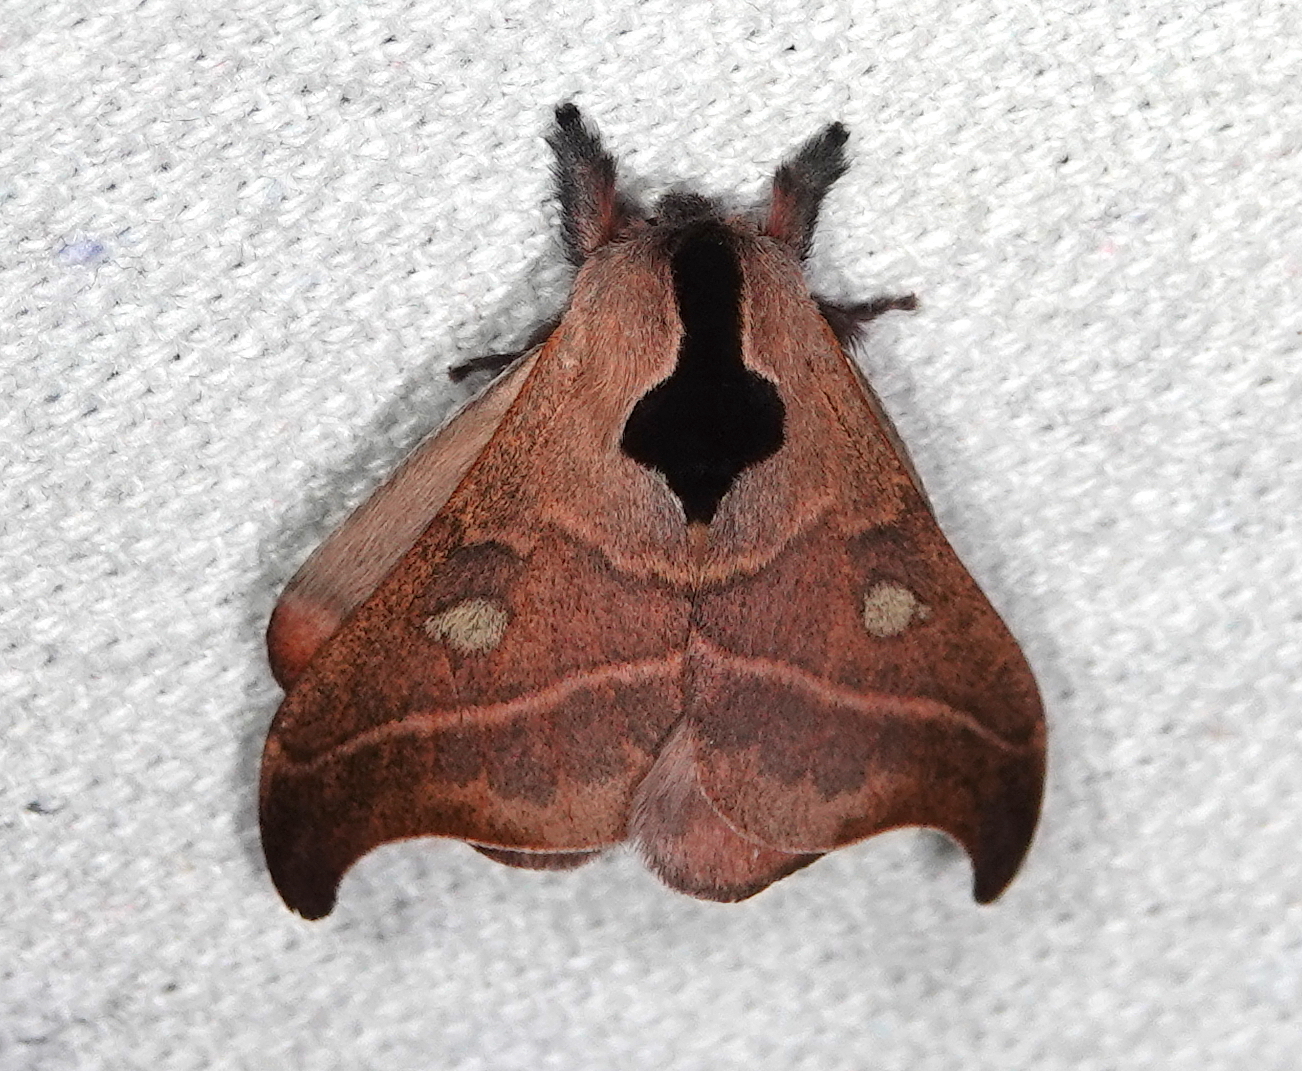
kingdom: Animalia
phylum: Arthropoda
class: Insecta
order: Lepidoptera
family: Saturniidae
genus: Hylesia
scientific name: Hylesia nanus
